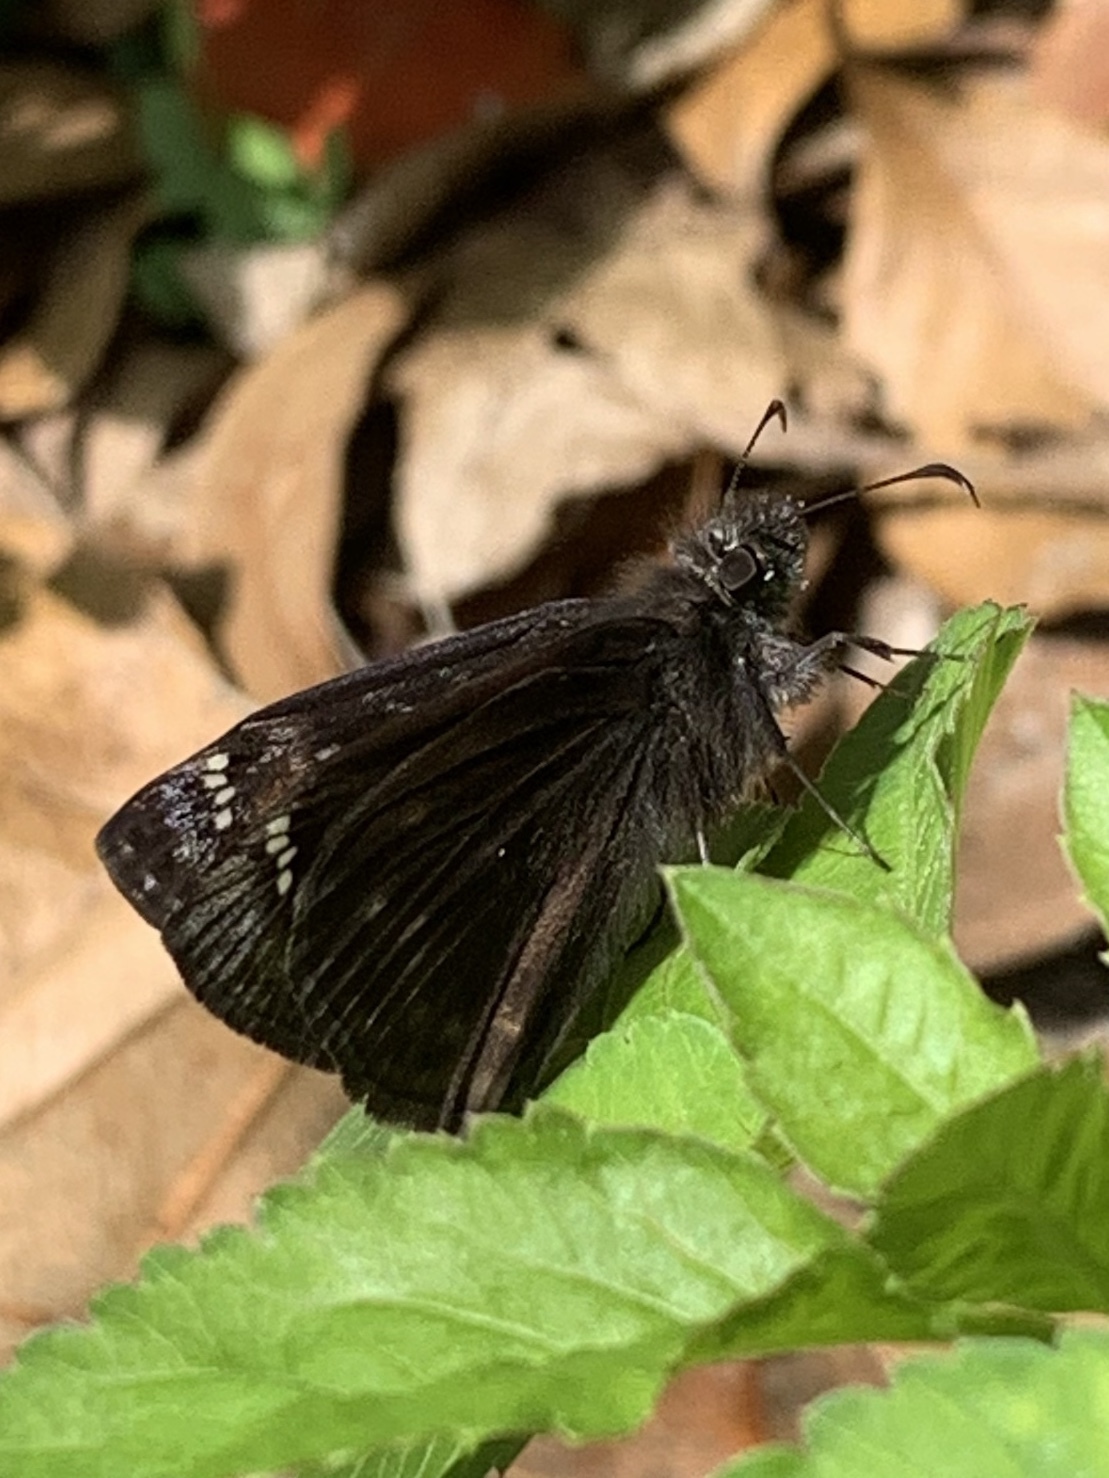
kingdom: Animalia
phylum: Arthropoda
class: Insecta
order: Lepidoptera
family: Hesperiidae
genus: Erynnis
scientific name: Erynnis juvenalis
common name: Juvenal's duskywing
